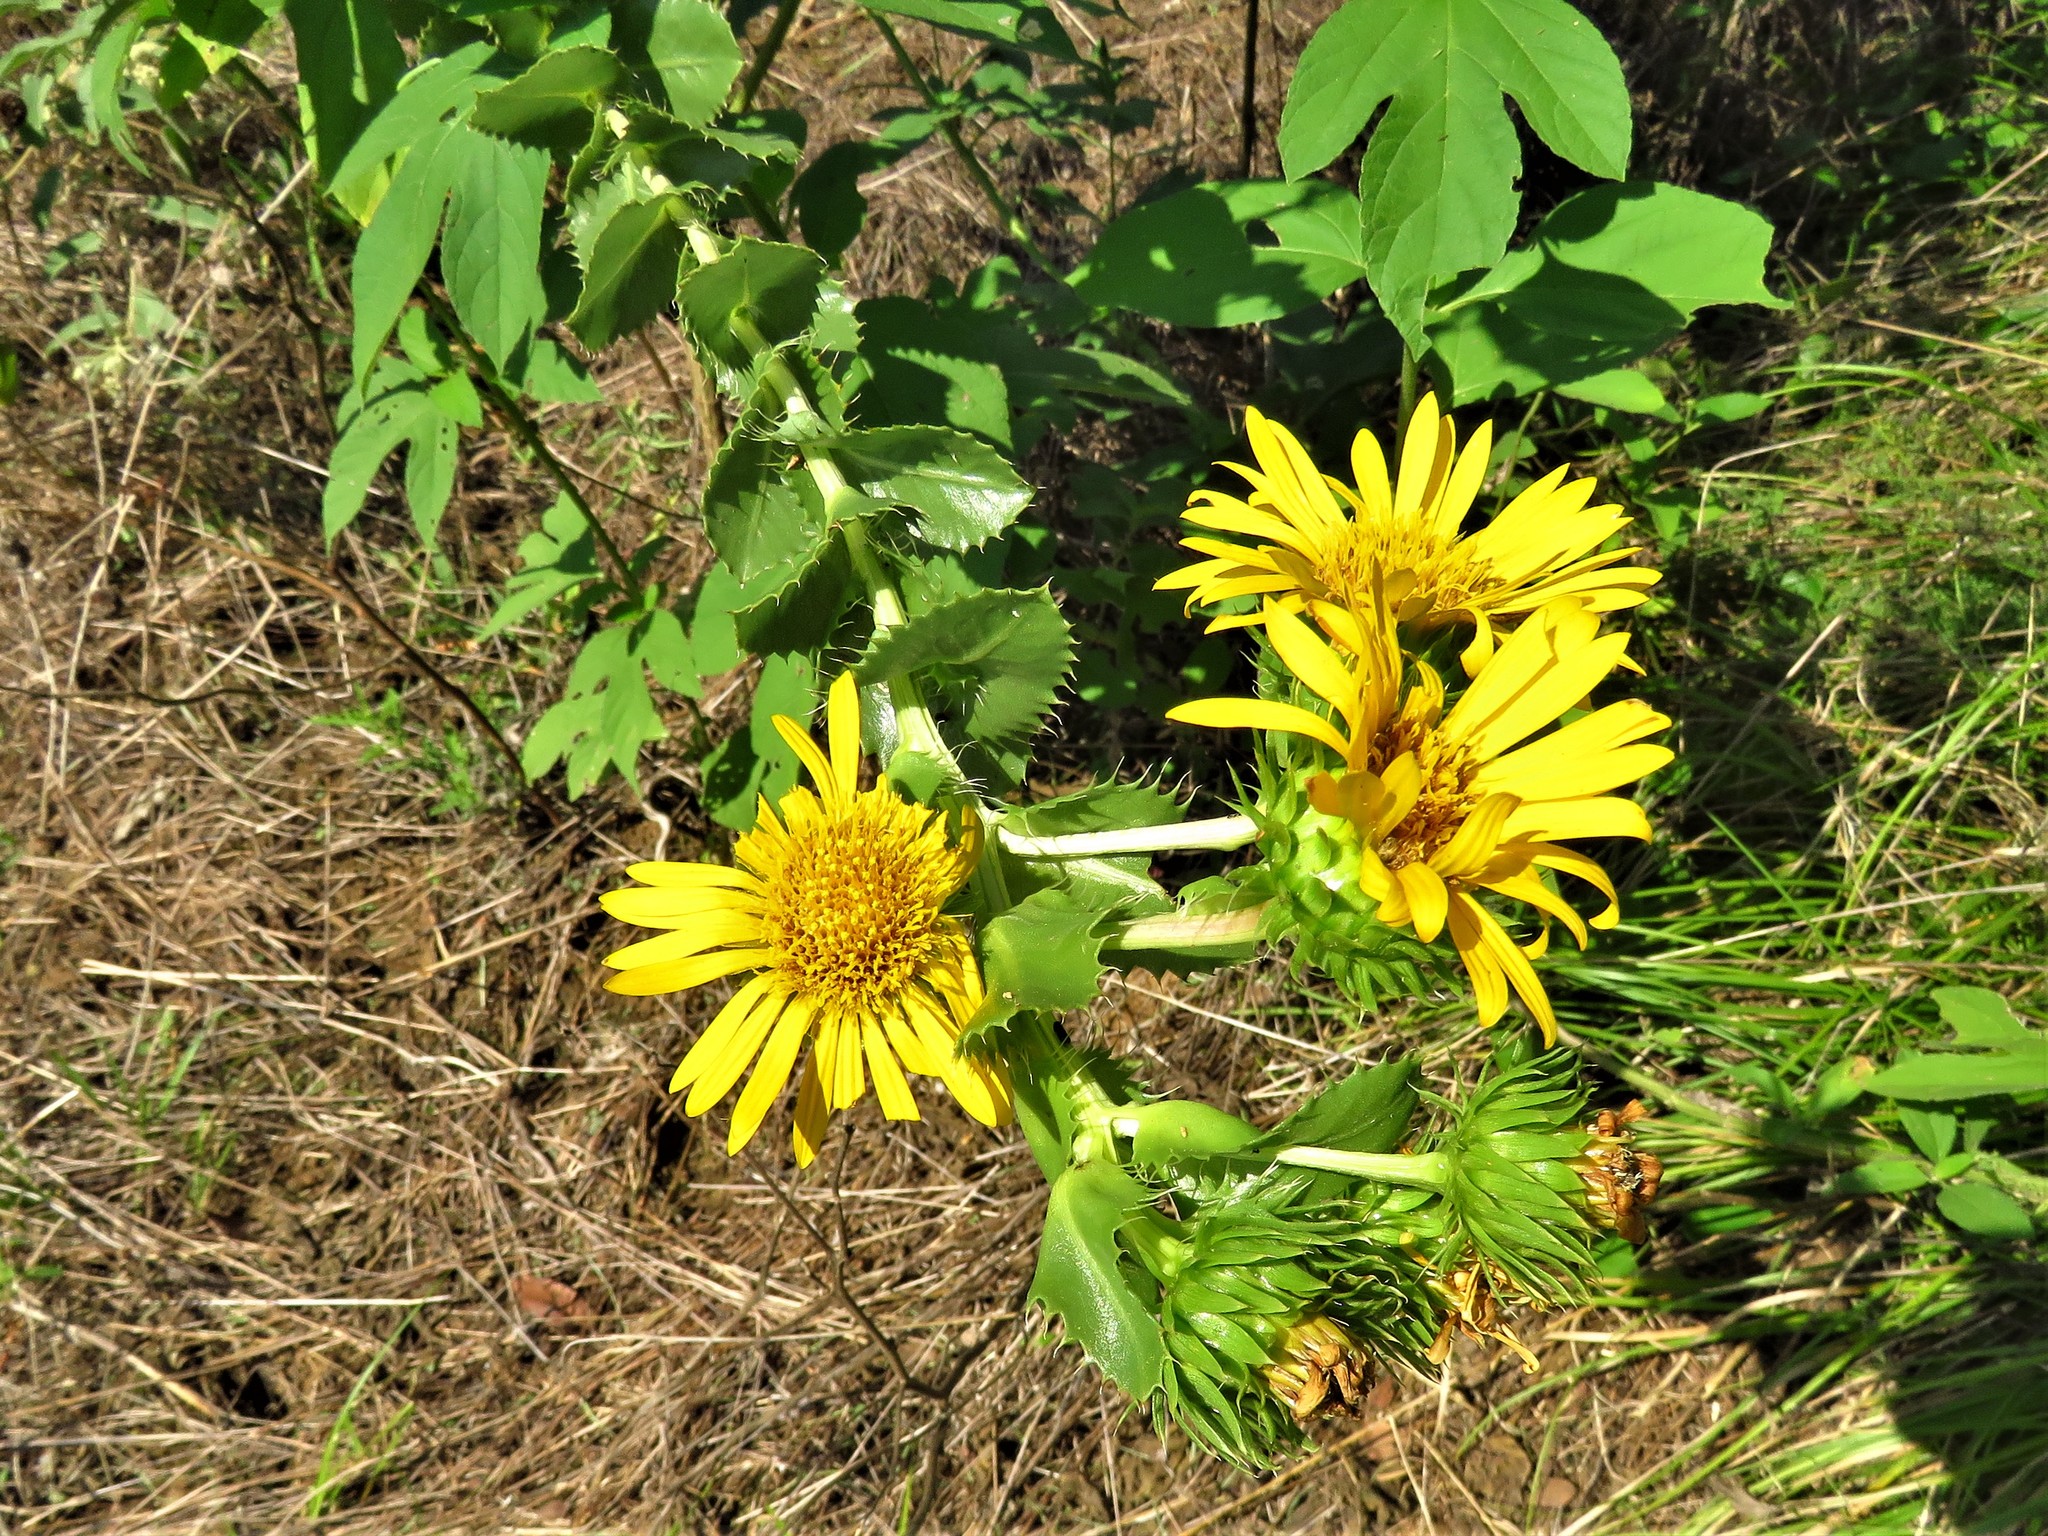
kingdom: Plantae
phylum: Tracheophyta
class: Magnoliopsida
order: Asterales
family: Asteraceae
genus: Grindelia
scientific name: Grindelia ciliata
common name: Goldenweed
